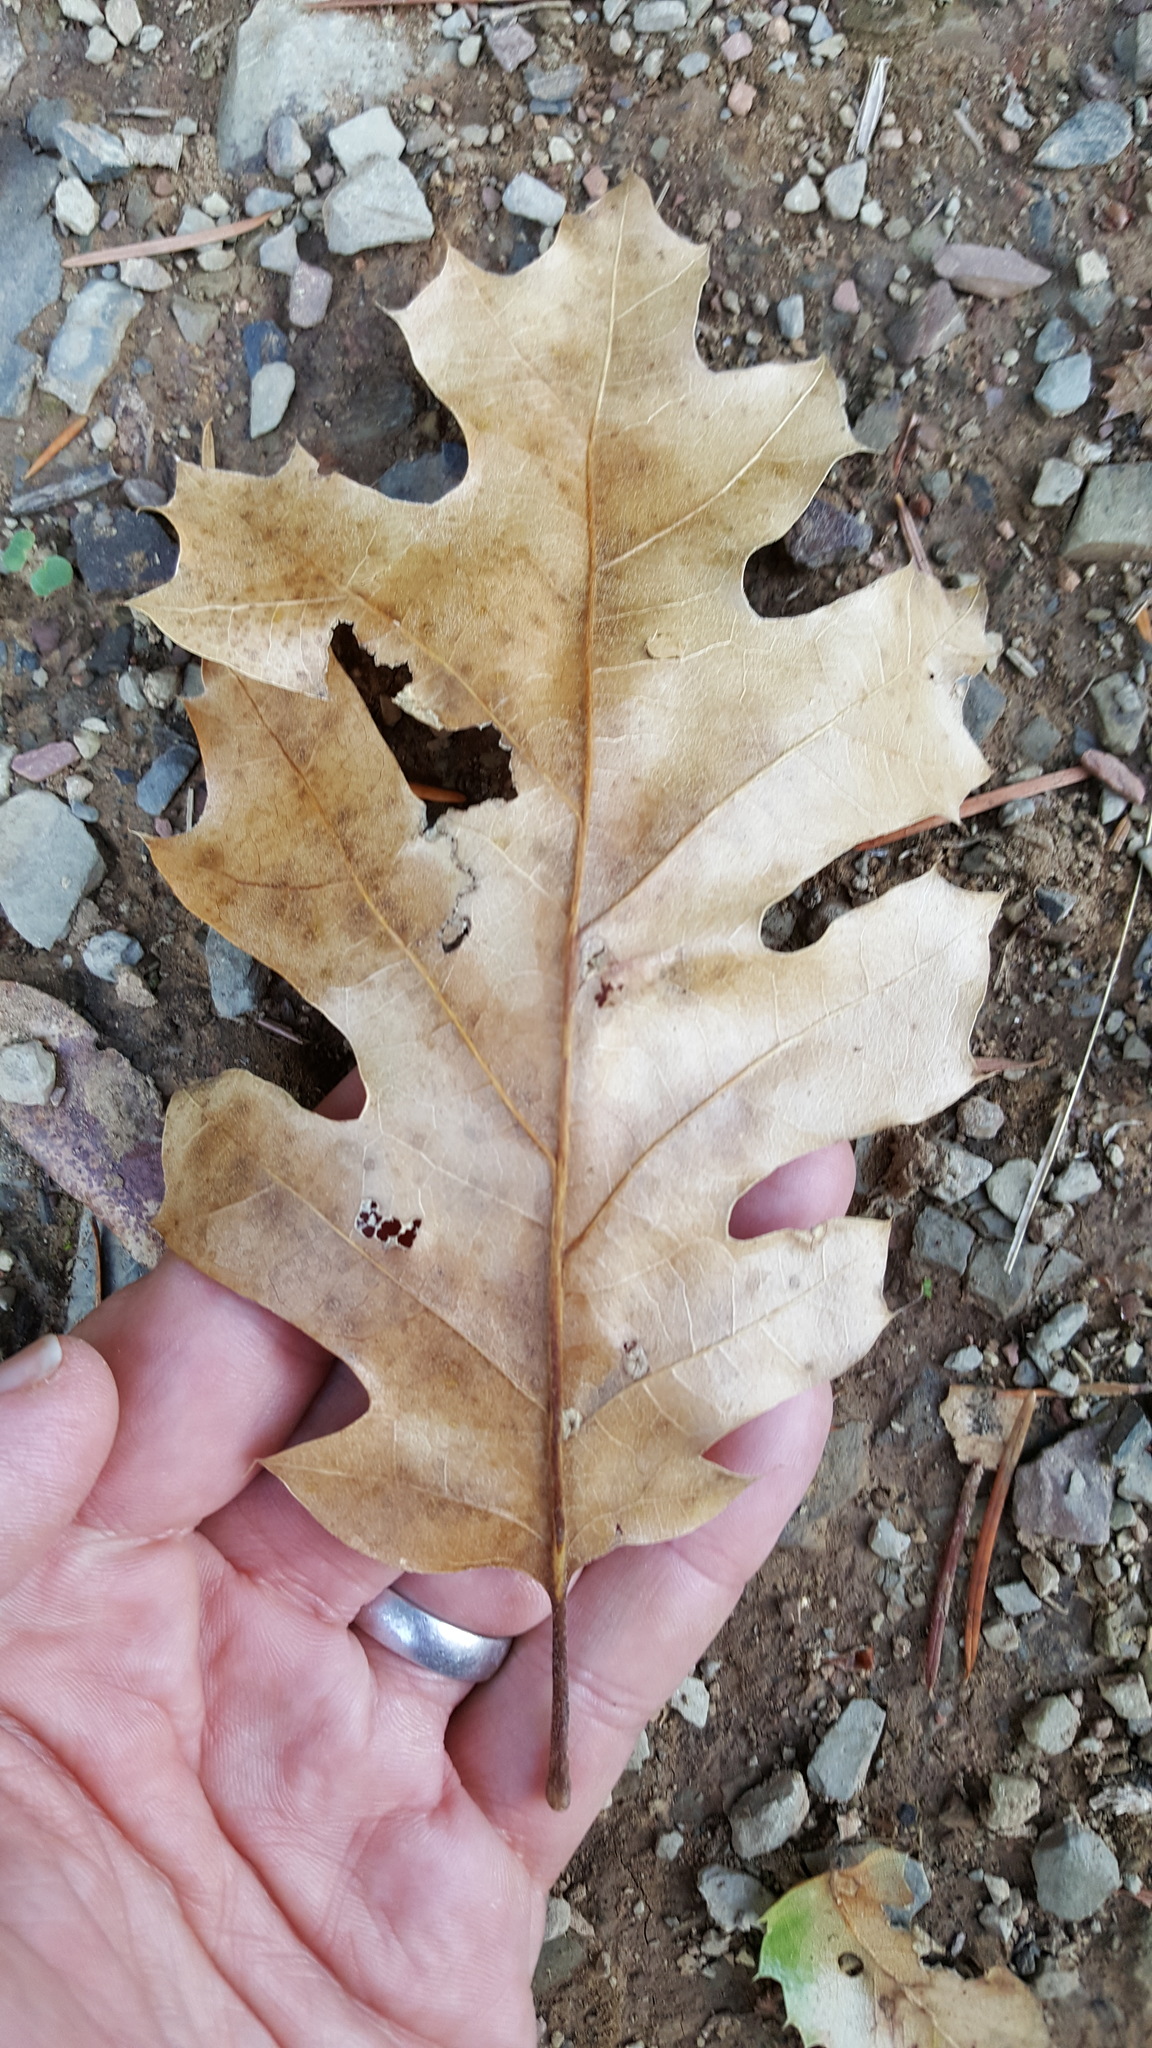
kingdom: Plantae
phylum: Tracheophyta
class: Magnoliopsida
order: Fagales
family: Fagaceae
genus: Quercus
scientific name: Quercus kelloggii
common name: California black oak
